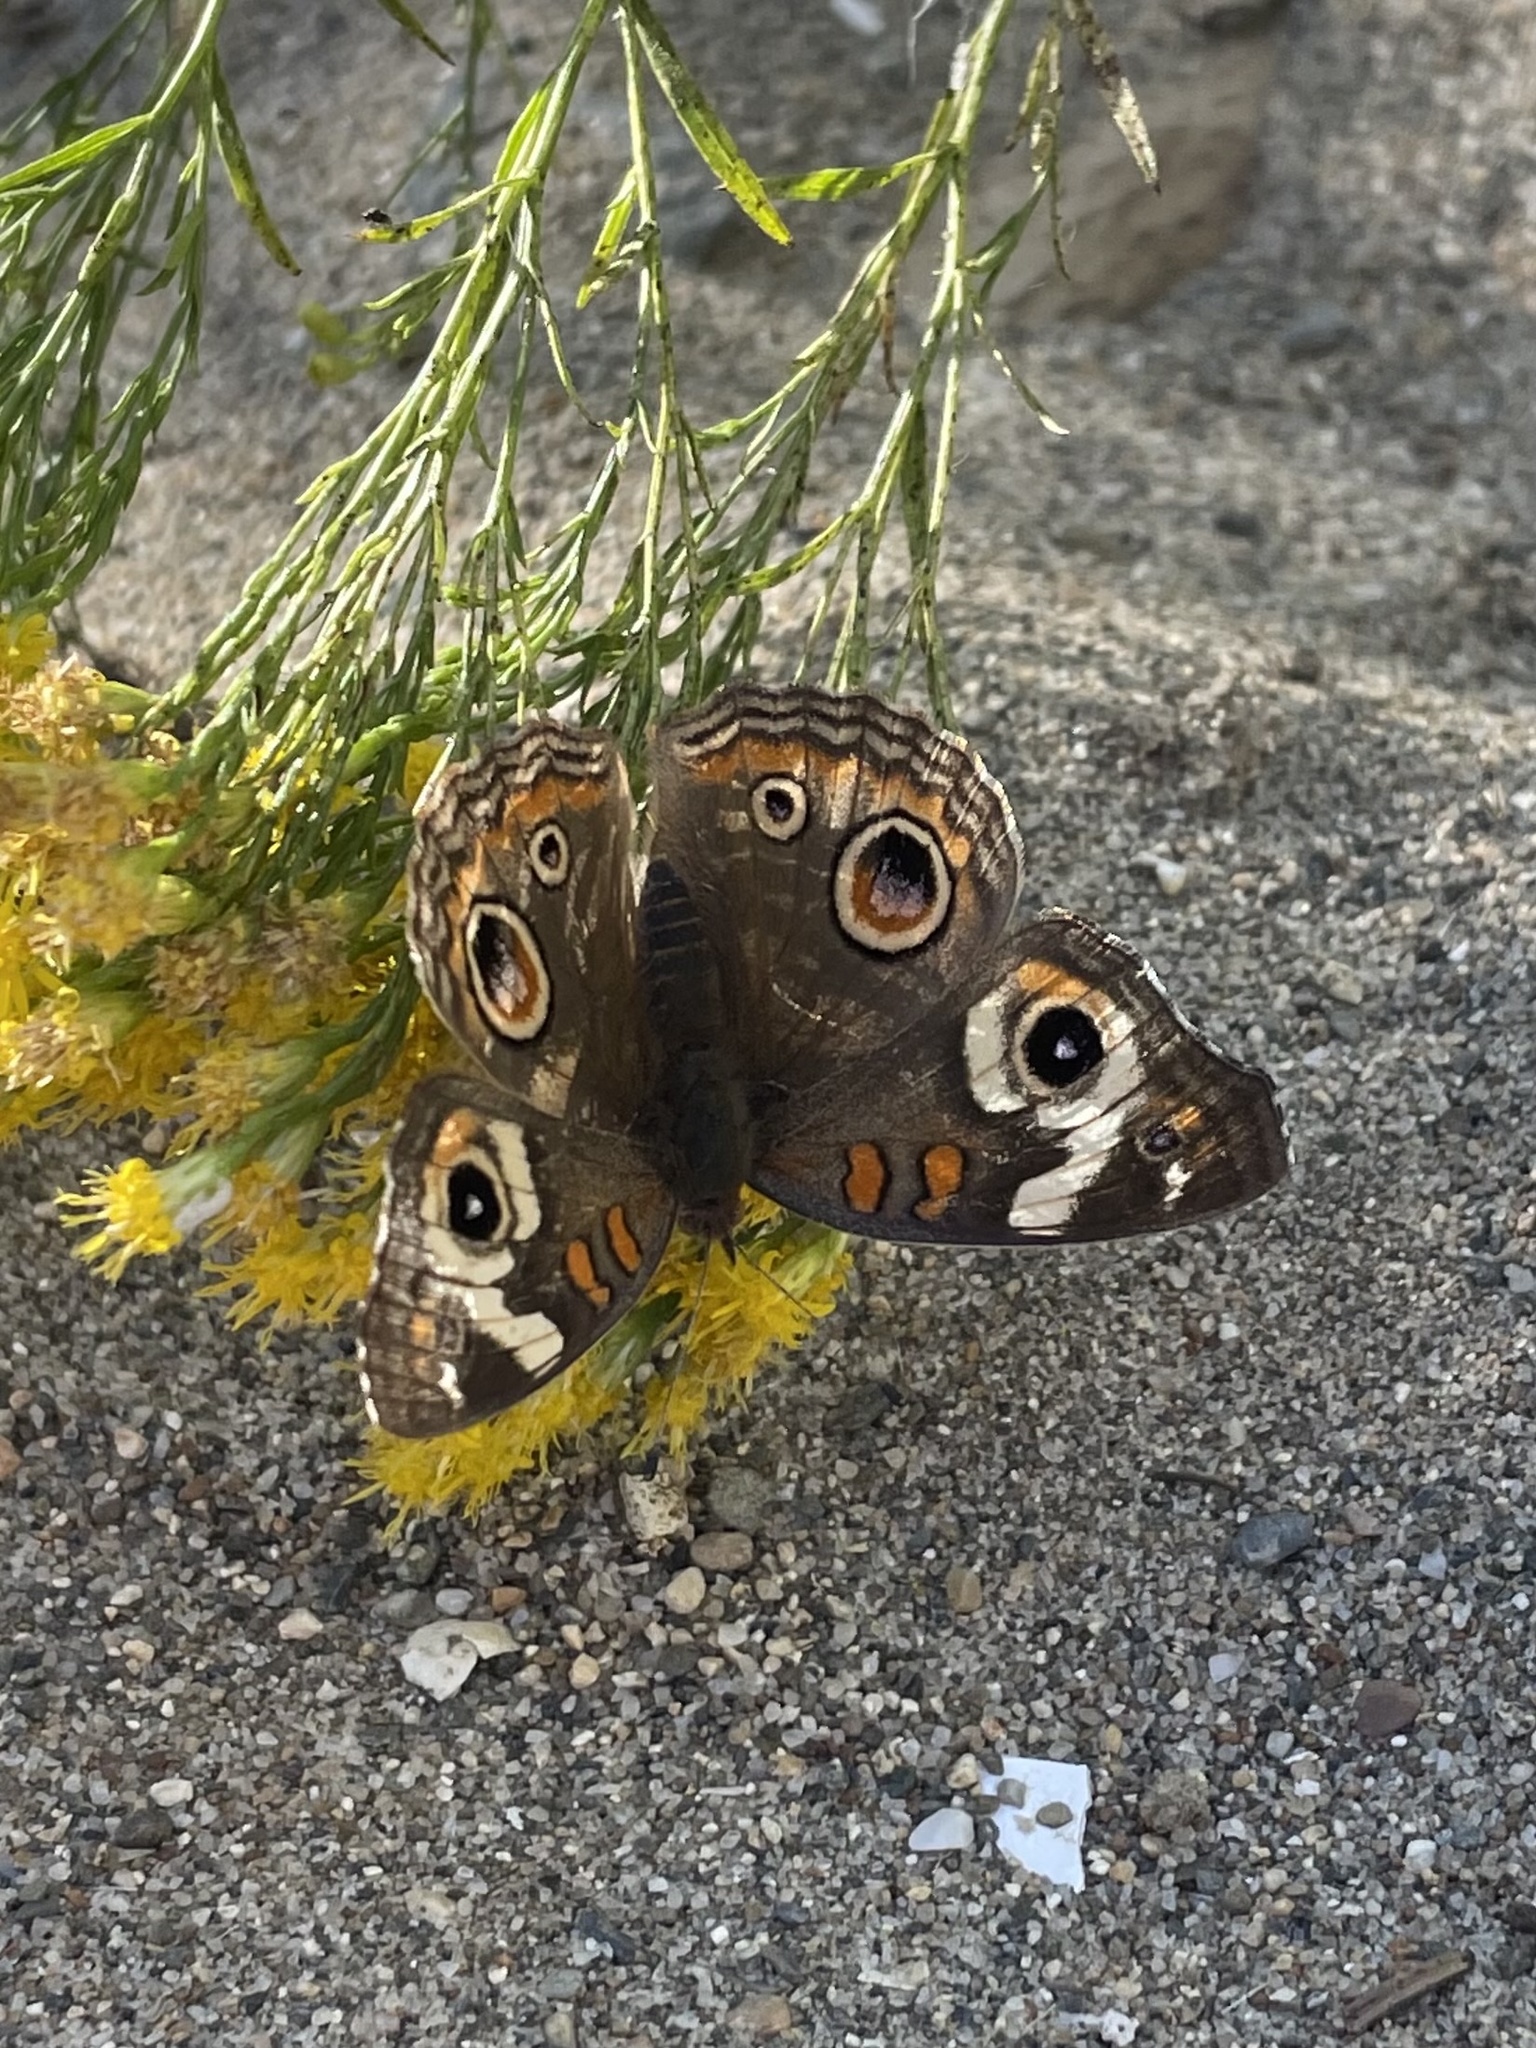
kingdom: Animalia
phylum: Arthropoda
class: Insecta
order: Lepidoptera
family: Nymphalidae
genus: Junonia
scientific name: Junonia grisea
